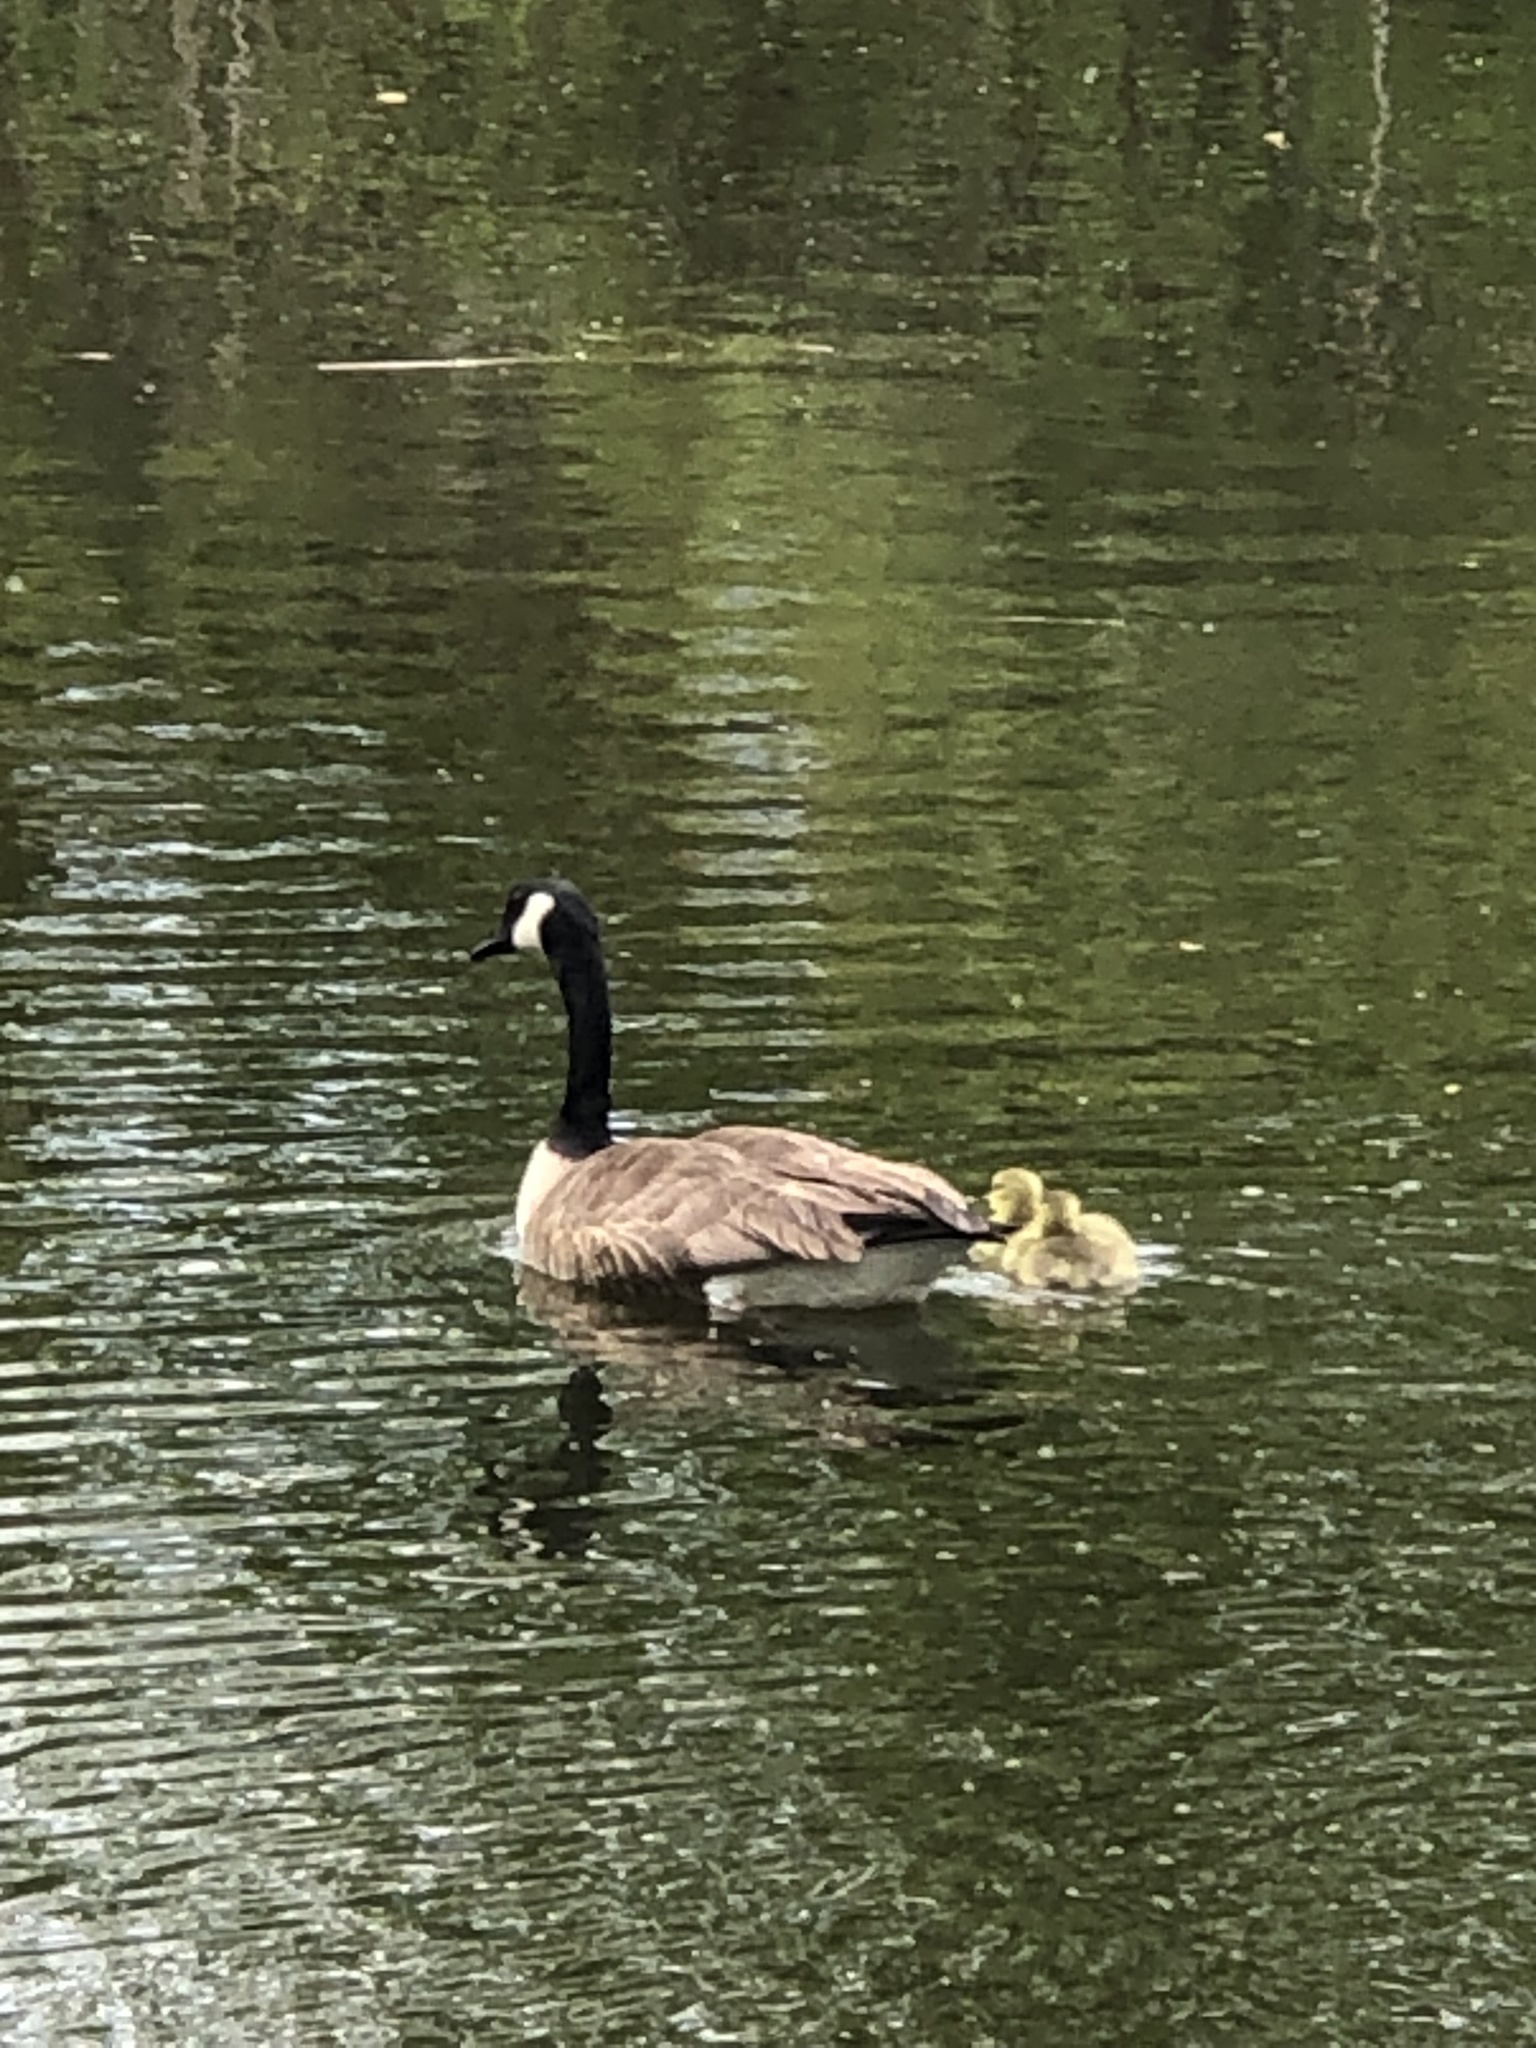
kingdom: Animalia
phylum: Chordata
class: Aves
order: Anseriformes
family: Anatidae
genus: Branta
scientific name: Branta canadensis
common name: Canada goose
